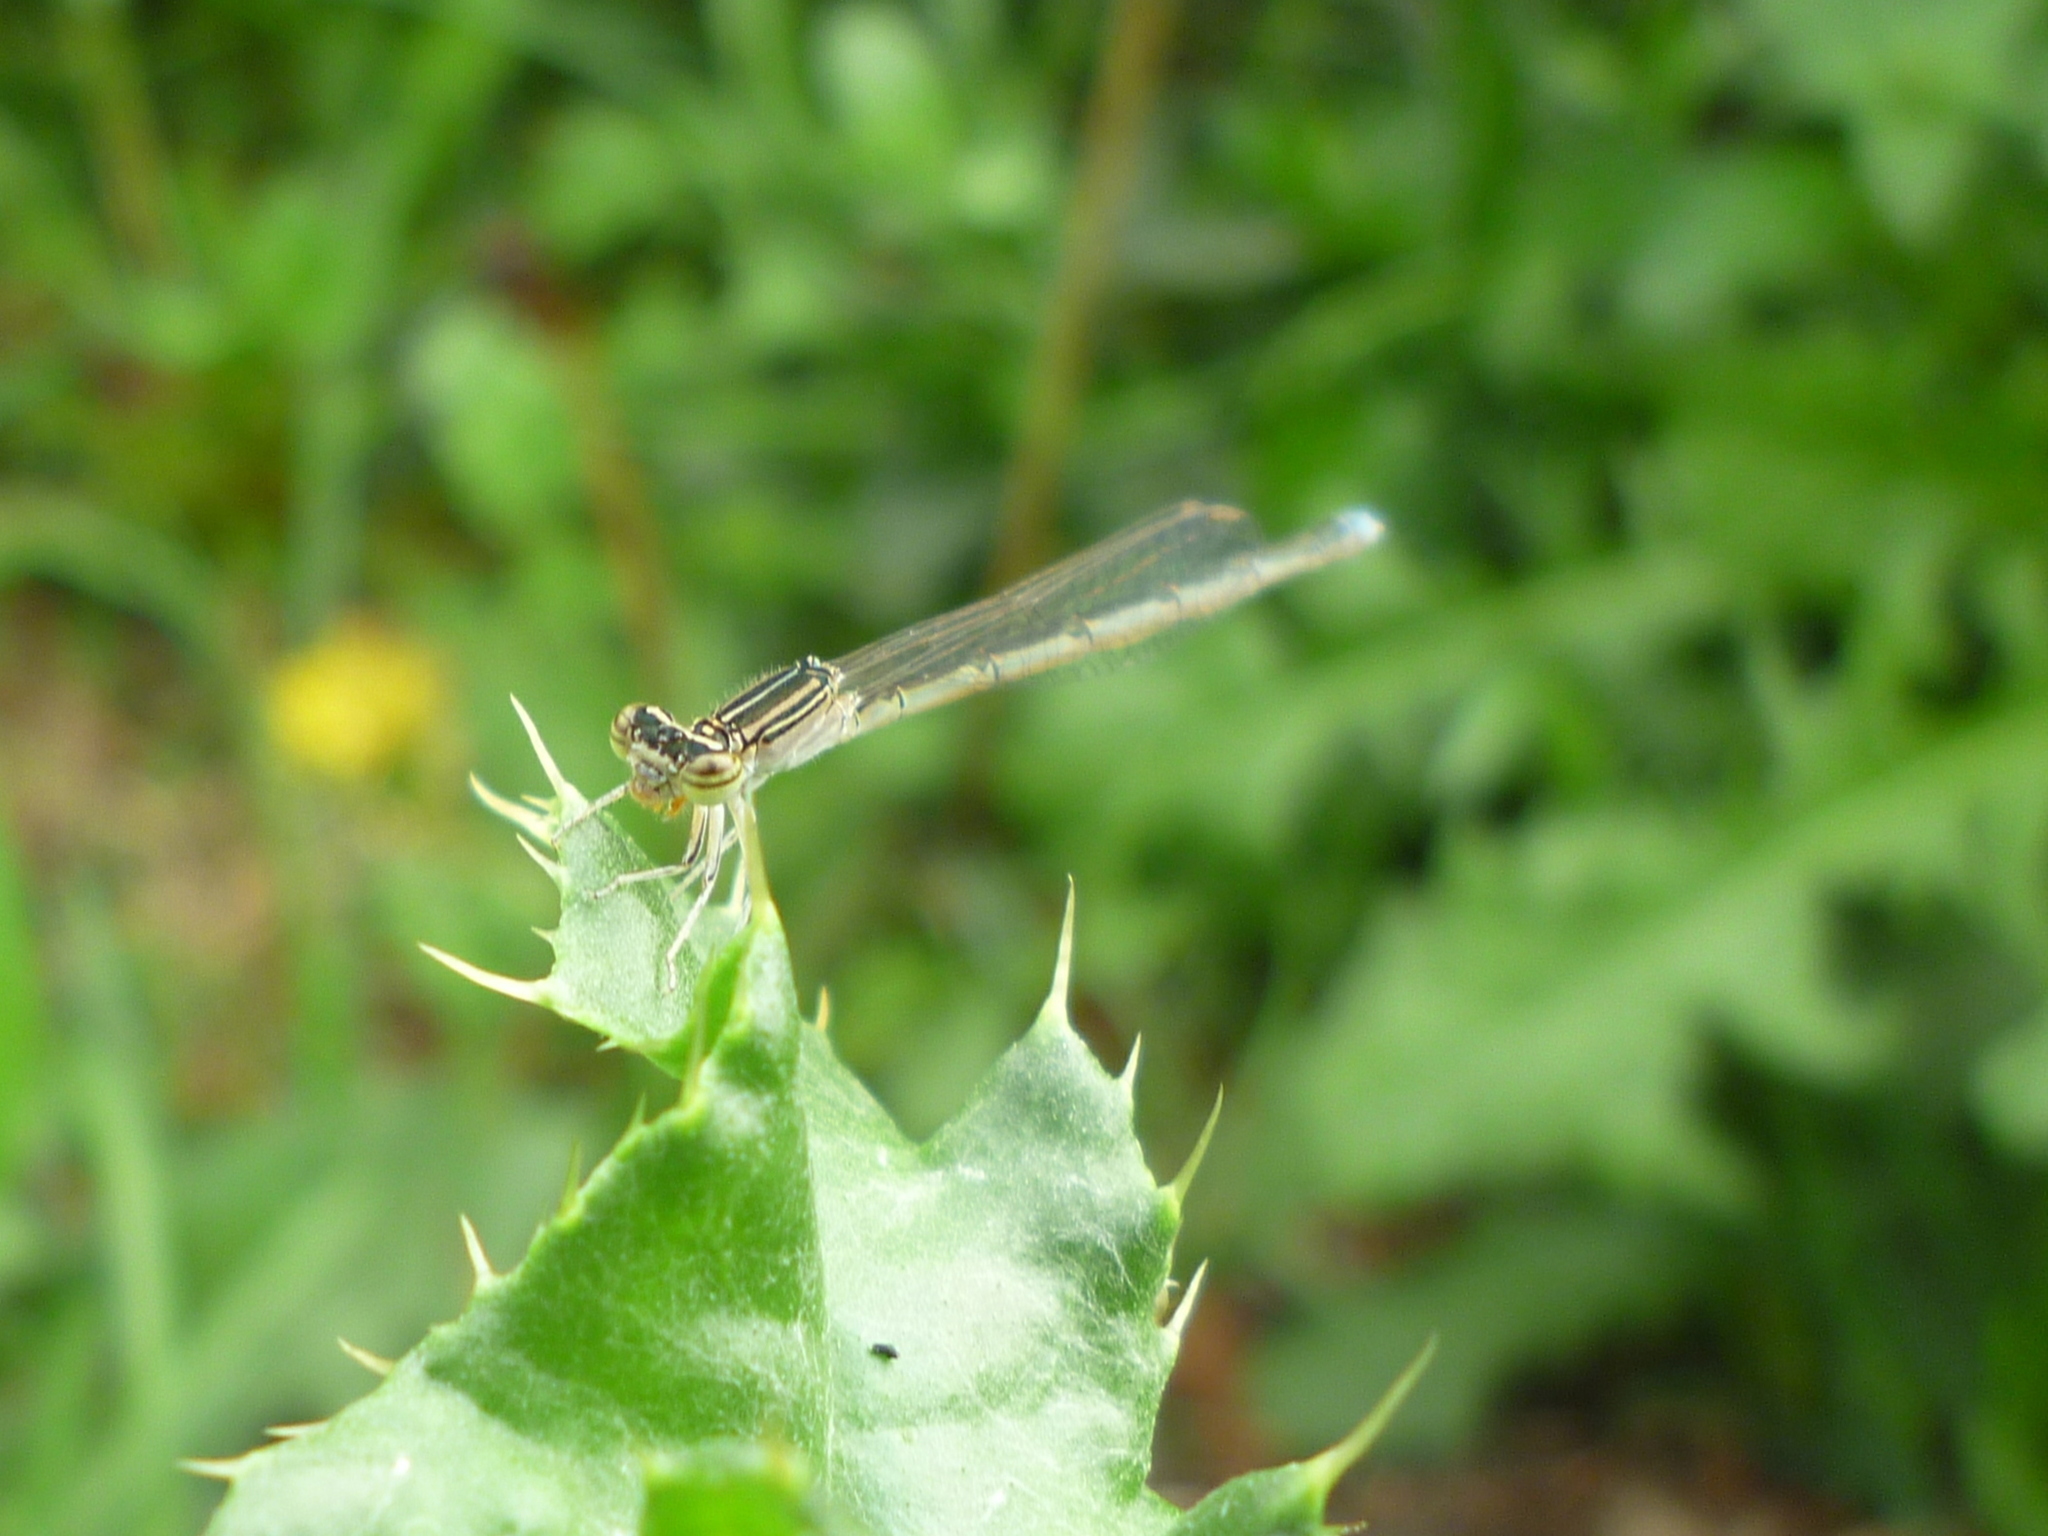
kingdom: Animalia
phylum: Arthropoda
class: Insecta
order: Odonata
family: Coenagrionidae
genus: Enallagma
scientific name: Enallagma basidens
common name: Double-striped bluet
